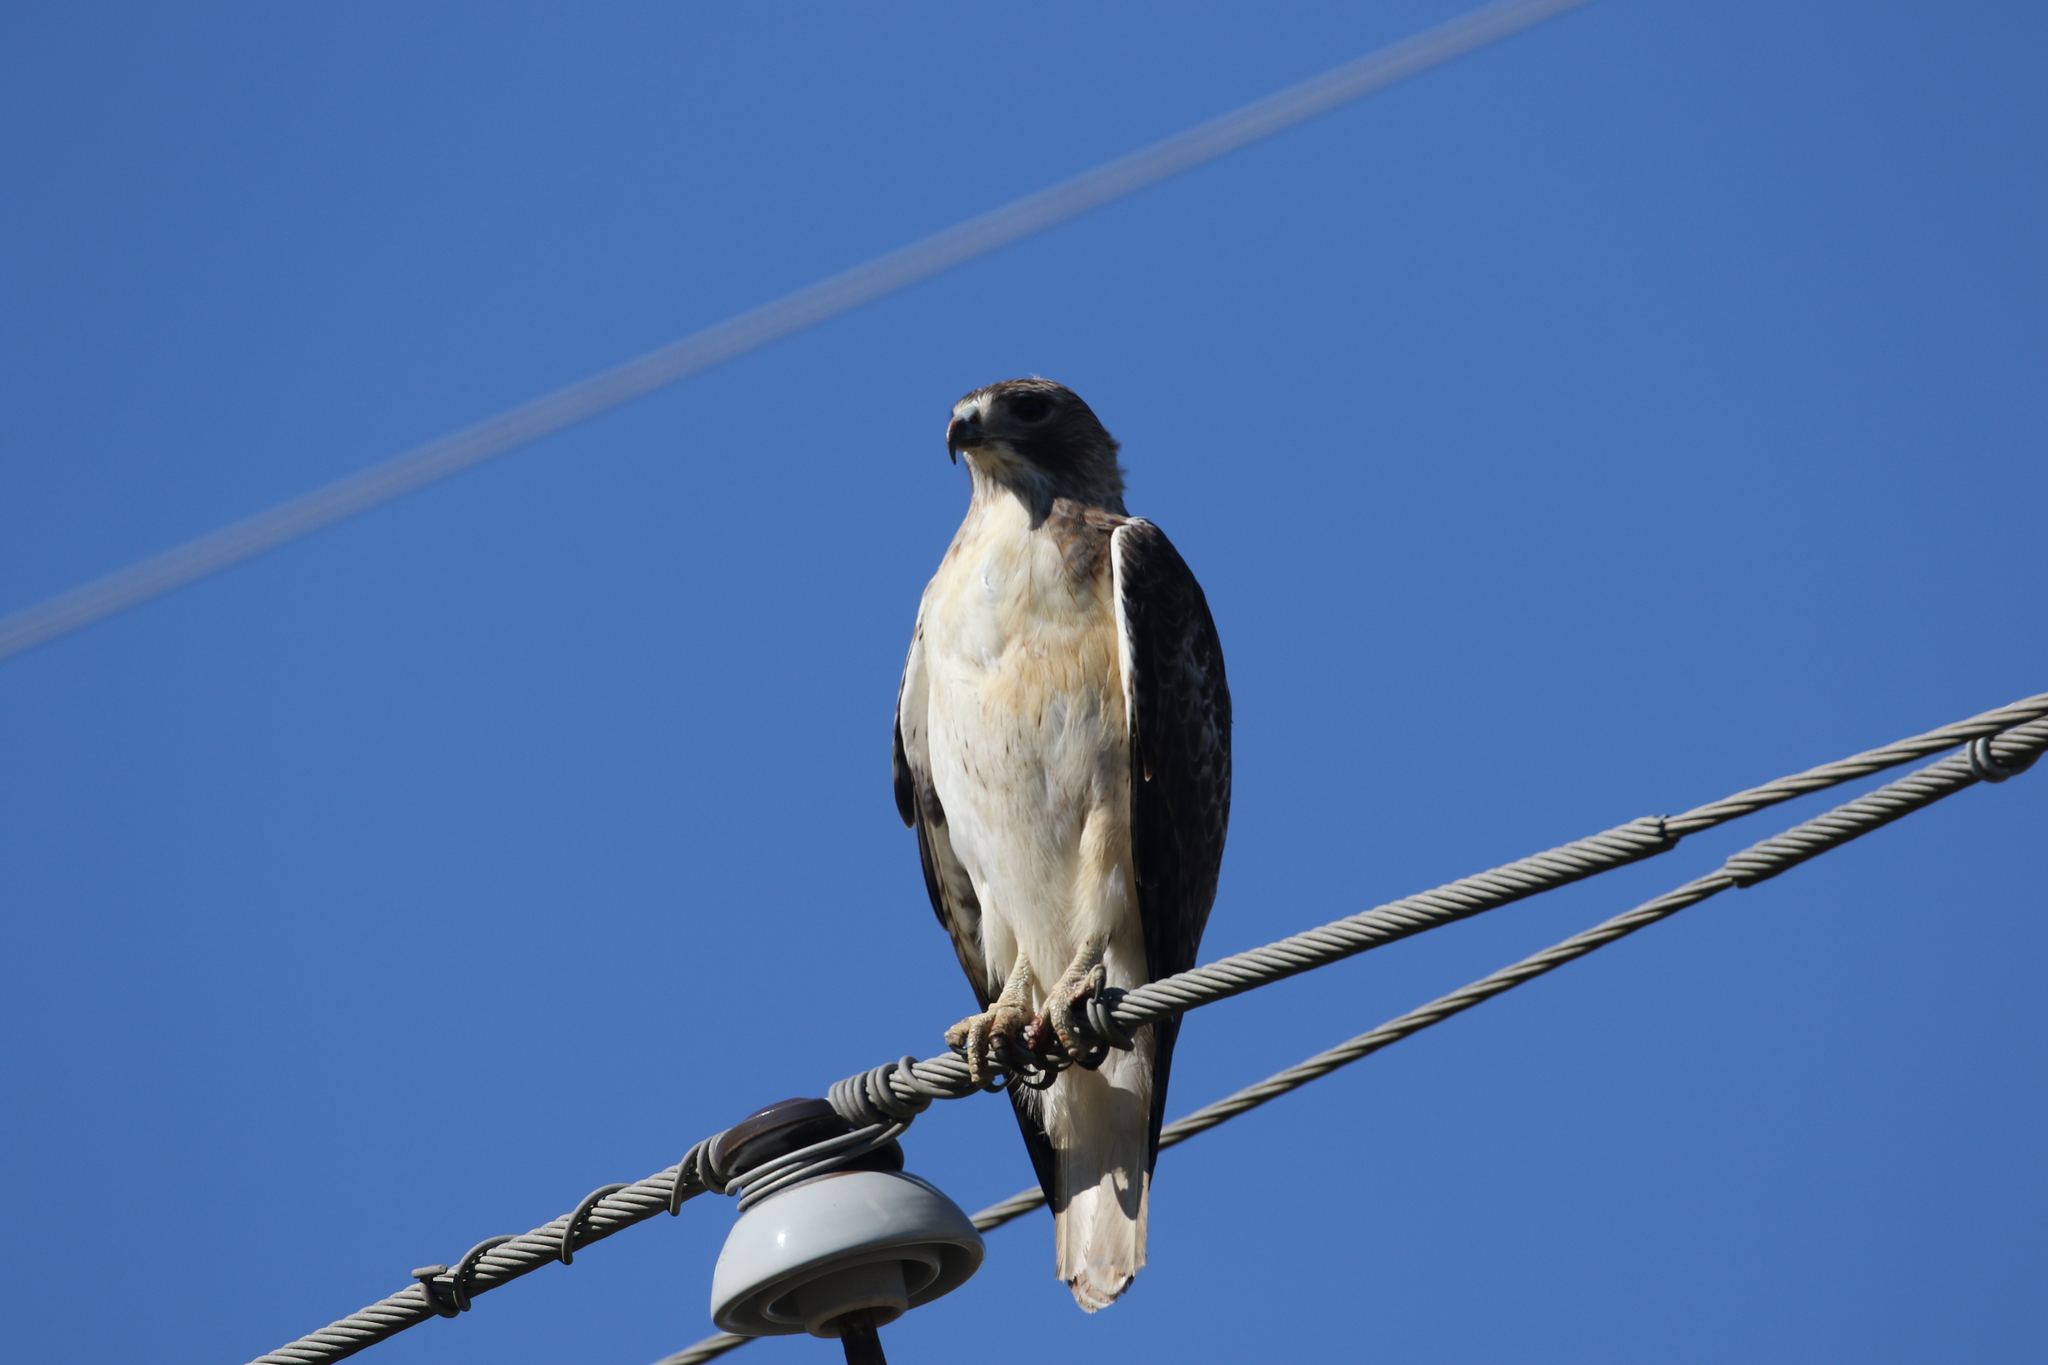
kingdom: Animalia
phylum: Chordata
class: Aves
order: Accipitriformes
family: Accipitridae
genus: Buteo
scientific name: Buteo jamaicensis
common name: Red-tailed hawk
